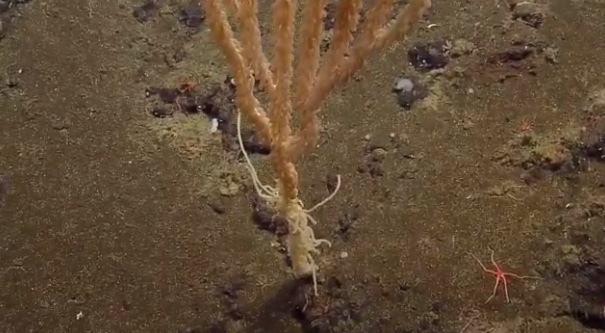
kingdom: Animalia
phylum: Cnidaria
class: Anthozoa
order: Scleralcyonacea
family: Keratoisididae
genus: Isidella
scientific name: Isidella tentaculum
